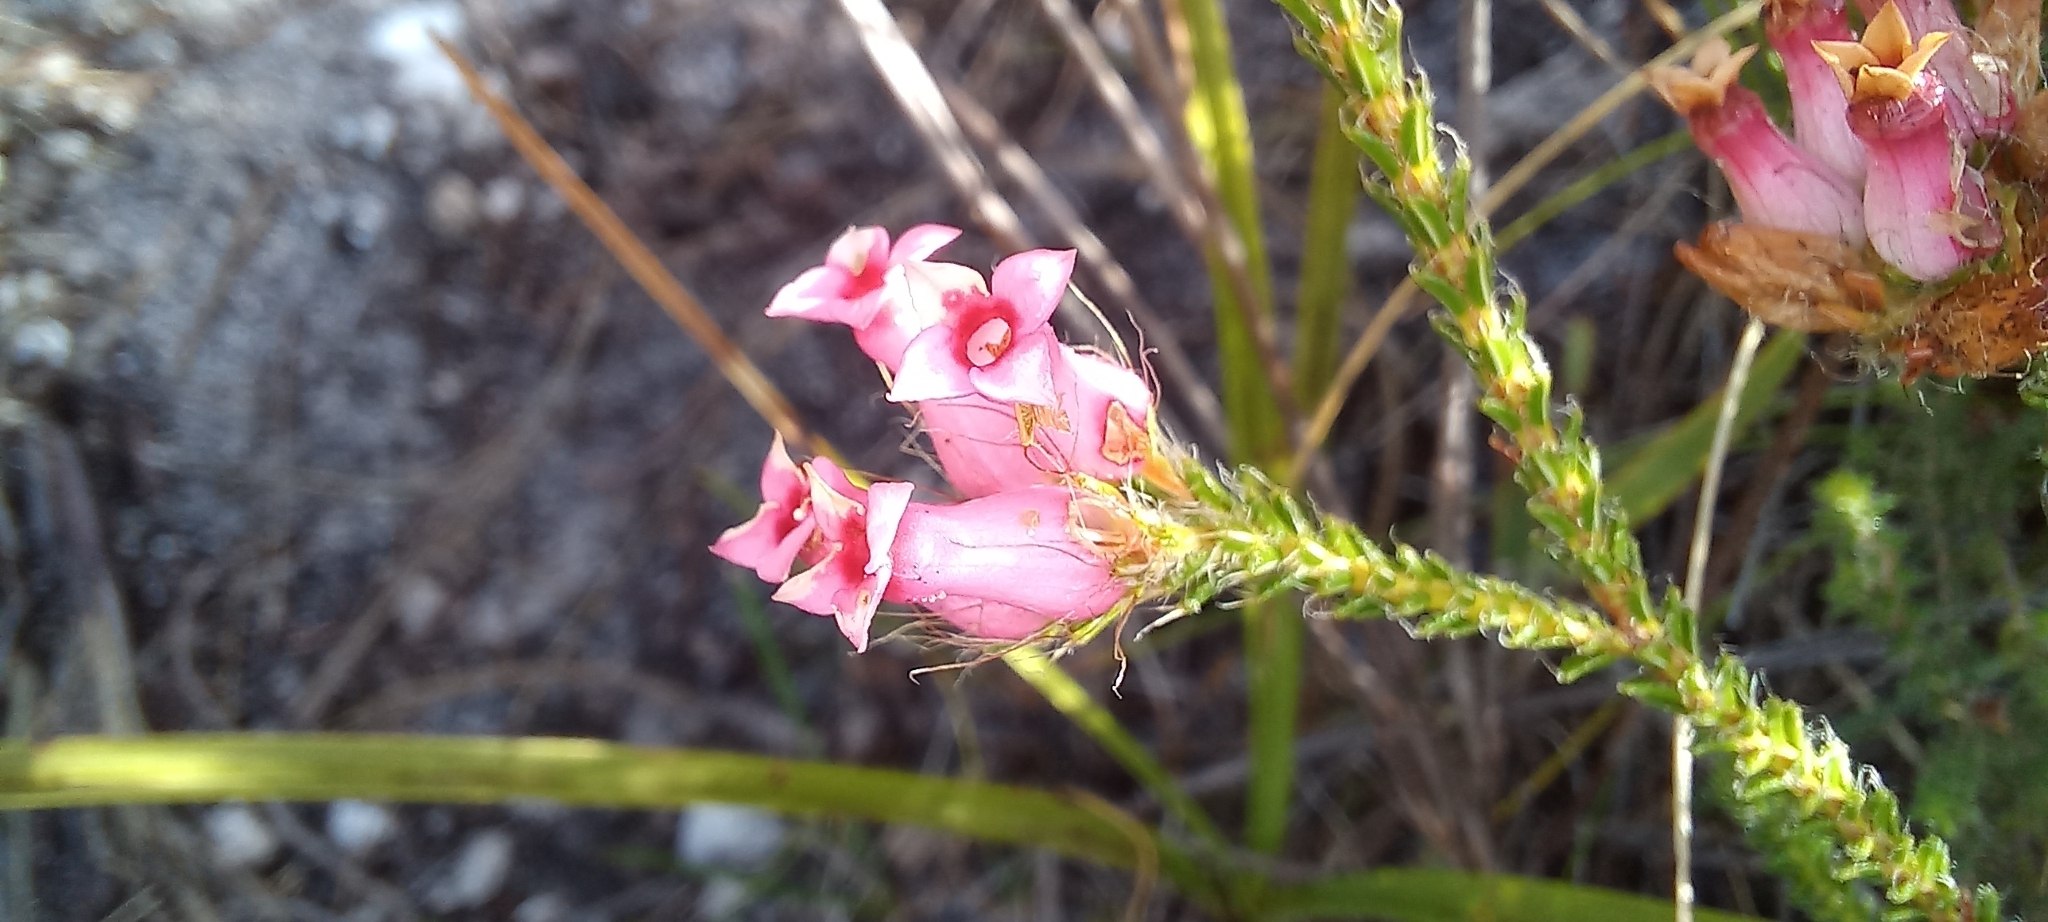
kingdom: Plantae
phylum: Tracheophyta
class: Magnoliopsida
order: Ericales
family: Ericaceae
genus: Erica
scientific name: Erica gysbertii
